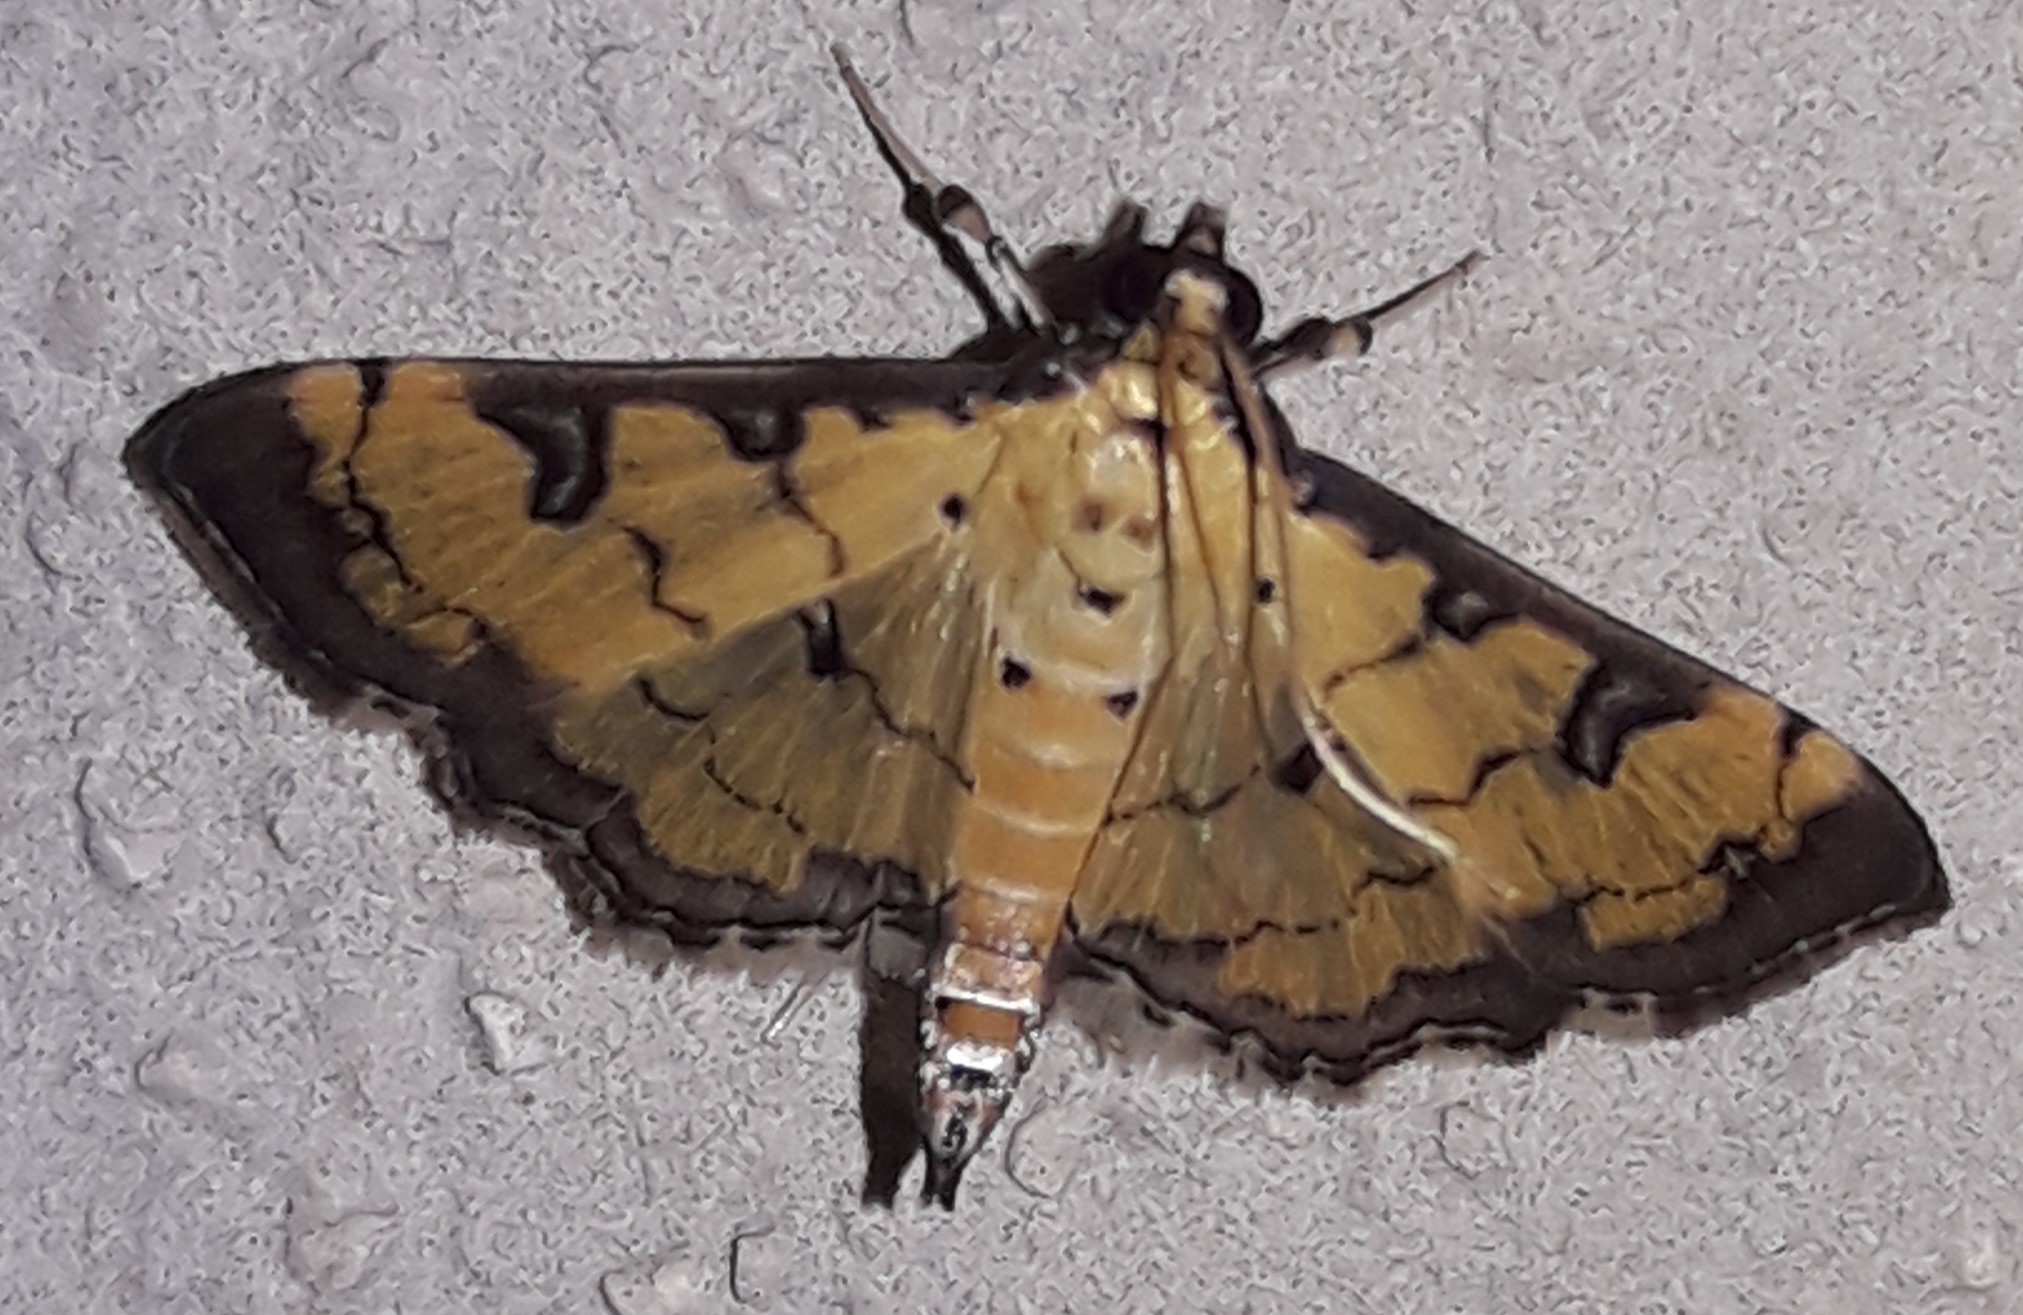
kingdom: Animalia
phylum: Arthropoda
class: Insecta
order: Lepidoptera
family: Crambidae
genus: Ategumia
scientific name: Ategumia ebulealis
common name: Moth
